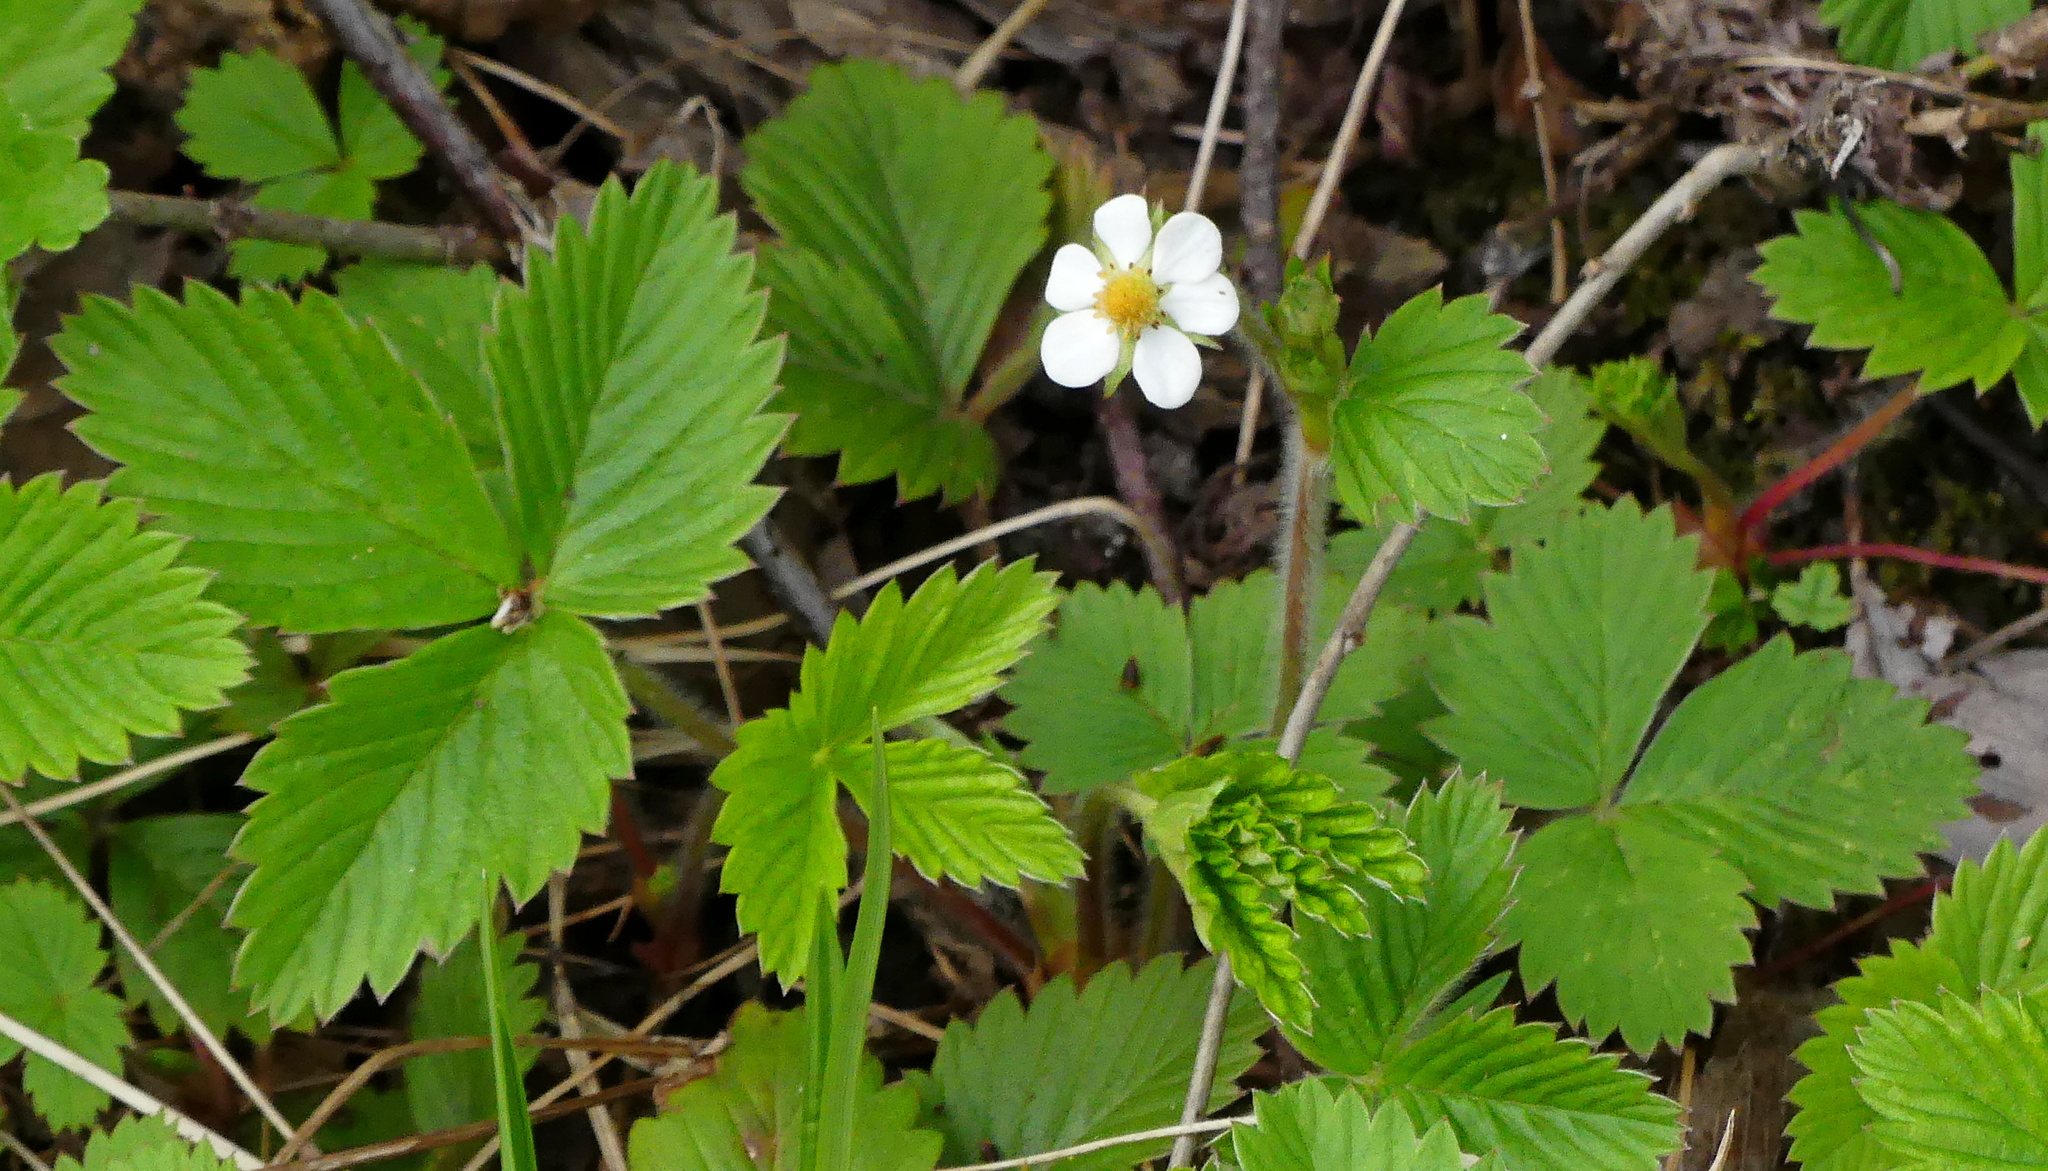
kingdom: Plantae
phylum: Tracheophyta
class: Magnoliopsida
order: Rosales
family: Rosaceae
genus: Fragaria
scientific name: Fragaria vesca
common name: Wild strawberry
